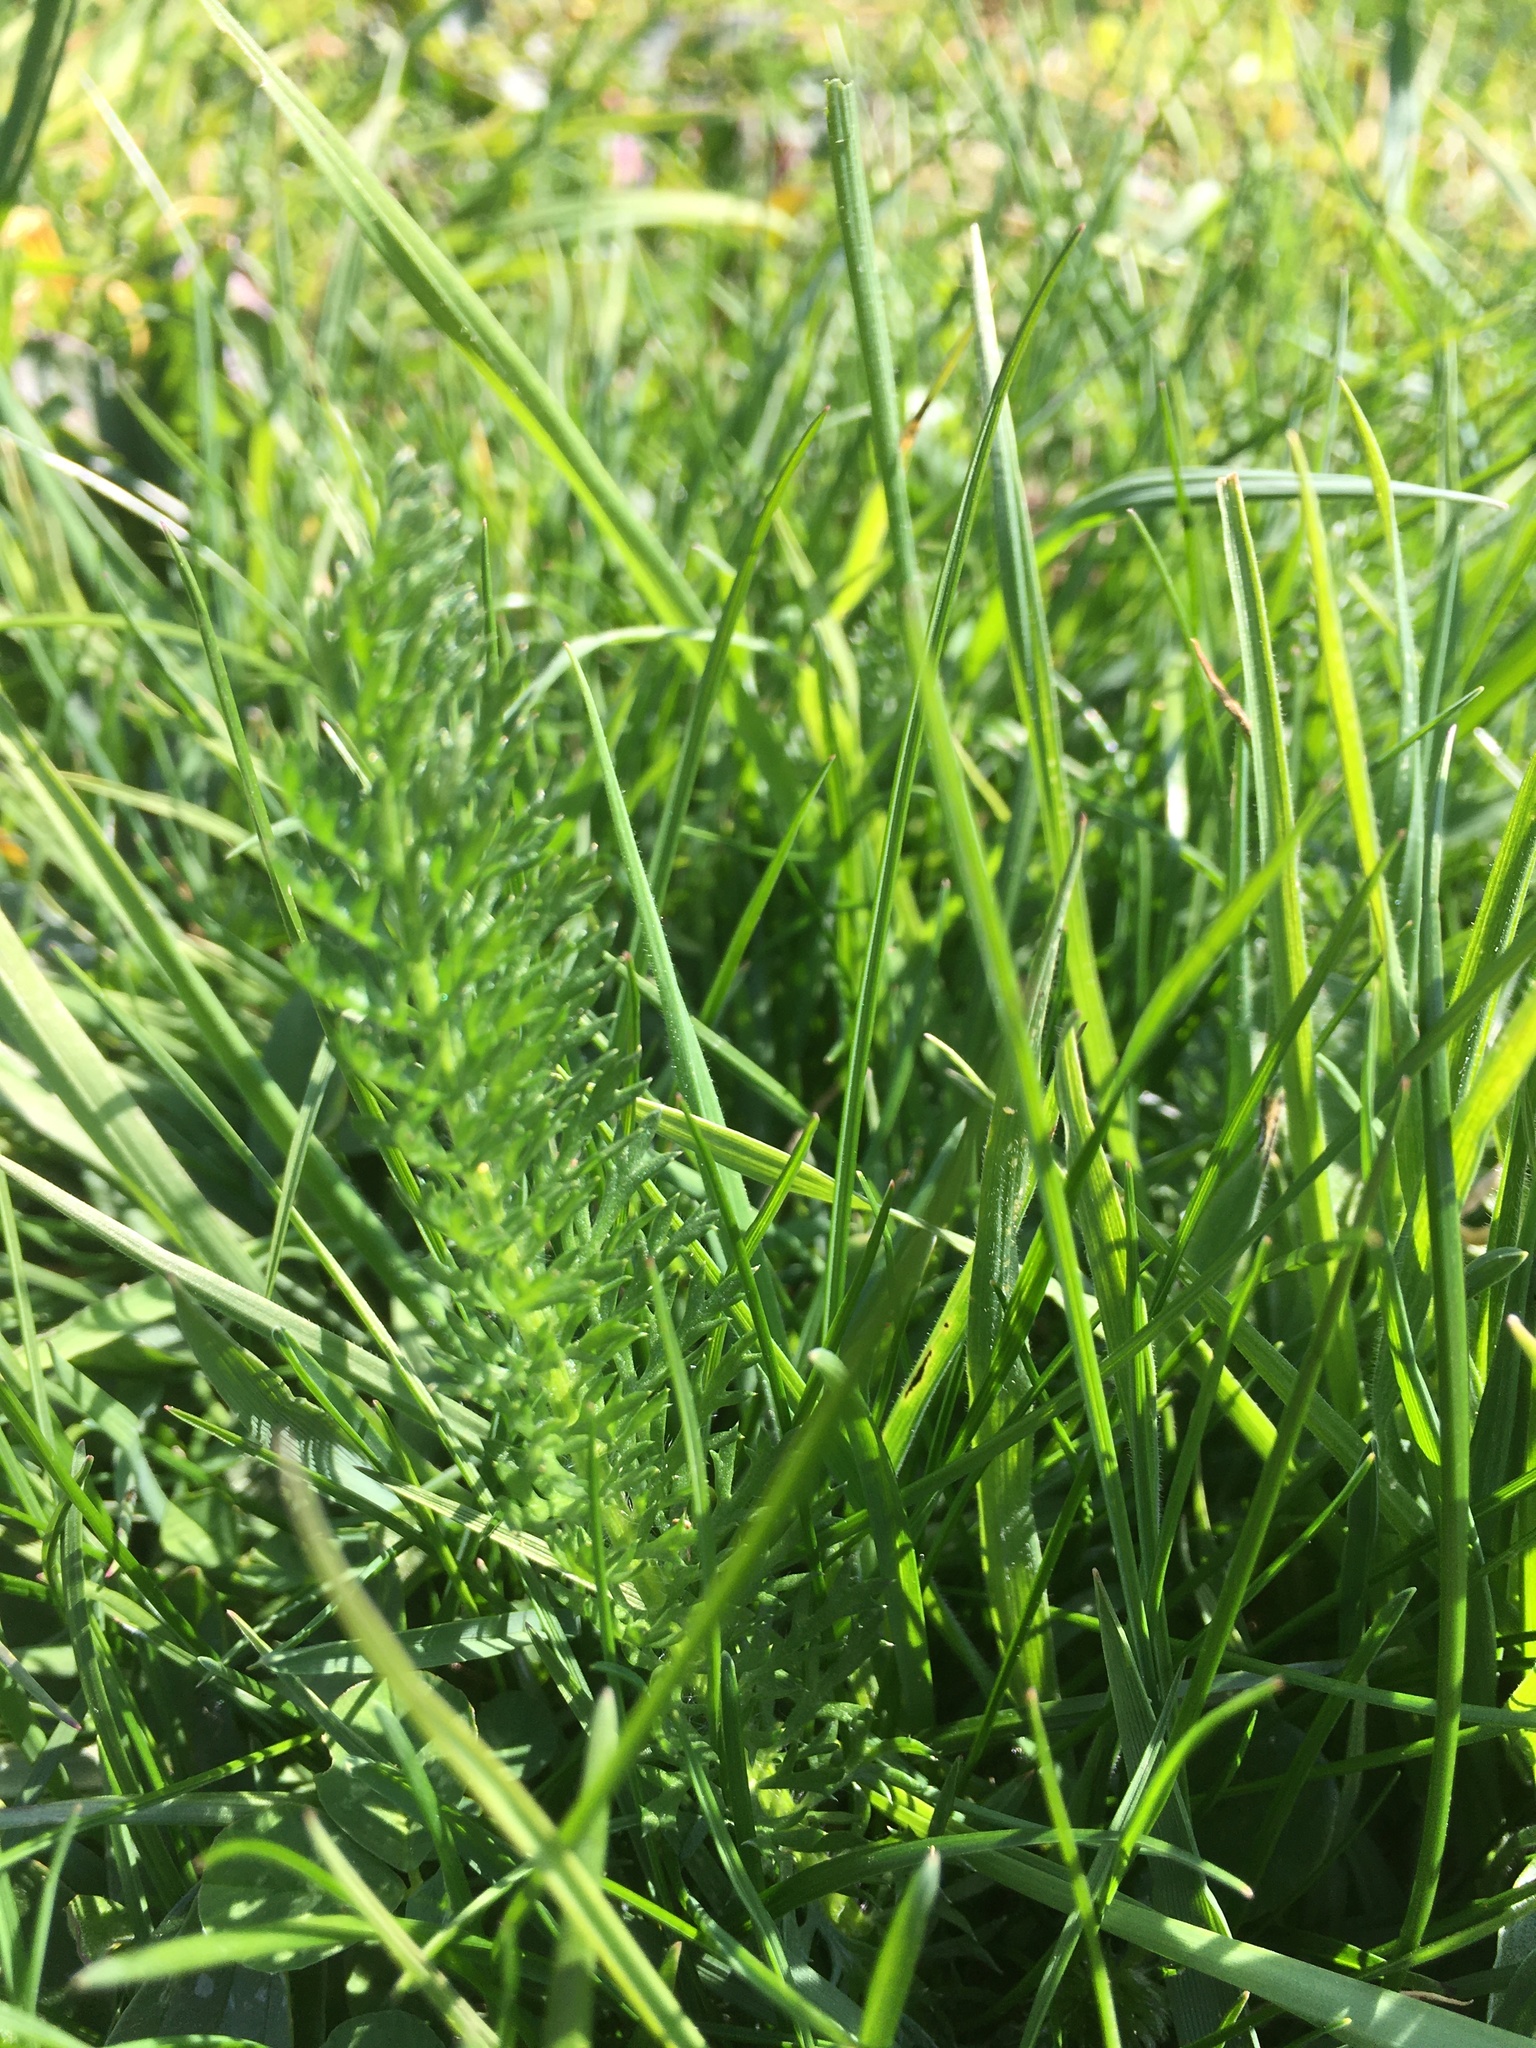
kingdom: Plantae
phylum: Tracheophyta
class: Magnoliopsida
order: Asterales
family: Asteraceae
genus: Achillea
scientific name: Achillea millefolium
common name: Yarrow
